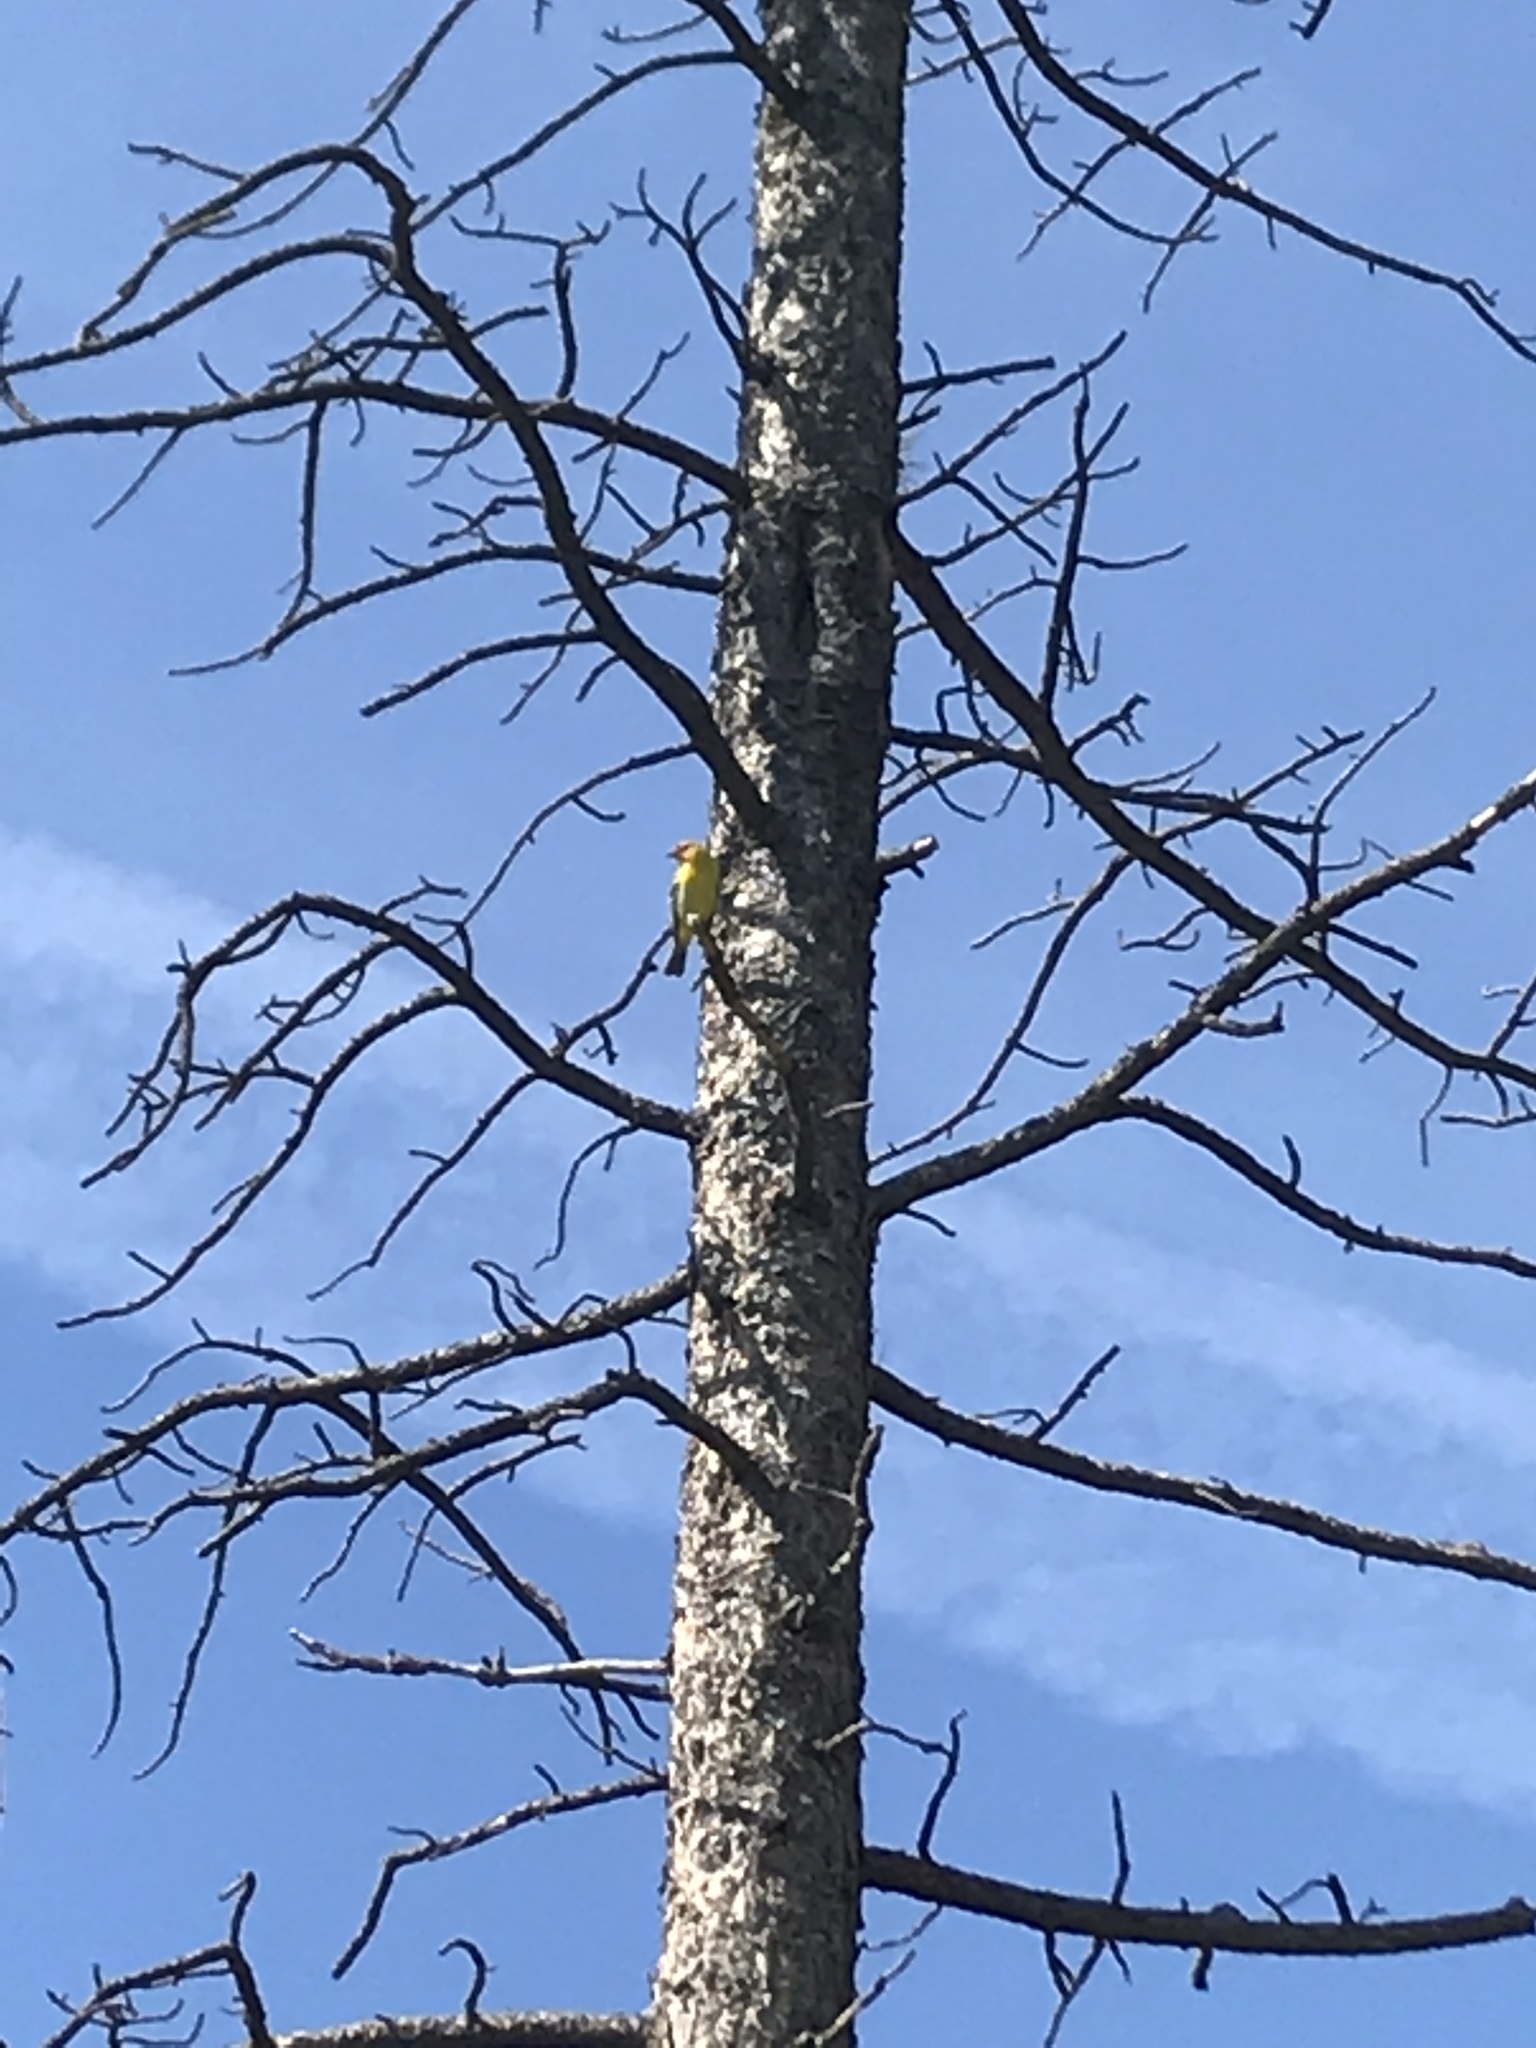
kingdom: Animalia
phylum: Chordata
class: Aves
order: Passeriformes
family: Cardinalidae
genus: Piranga
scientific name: Piranga ludoviciana
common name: Western tanager
